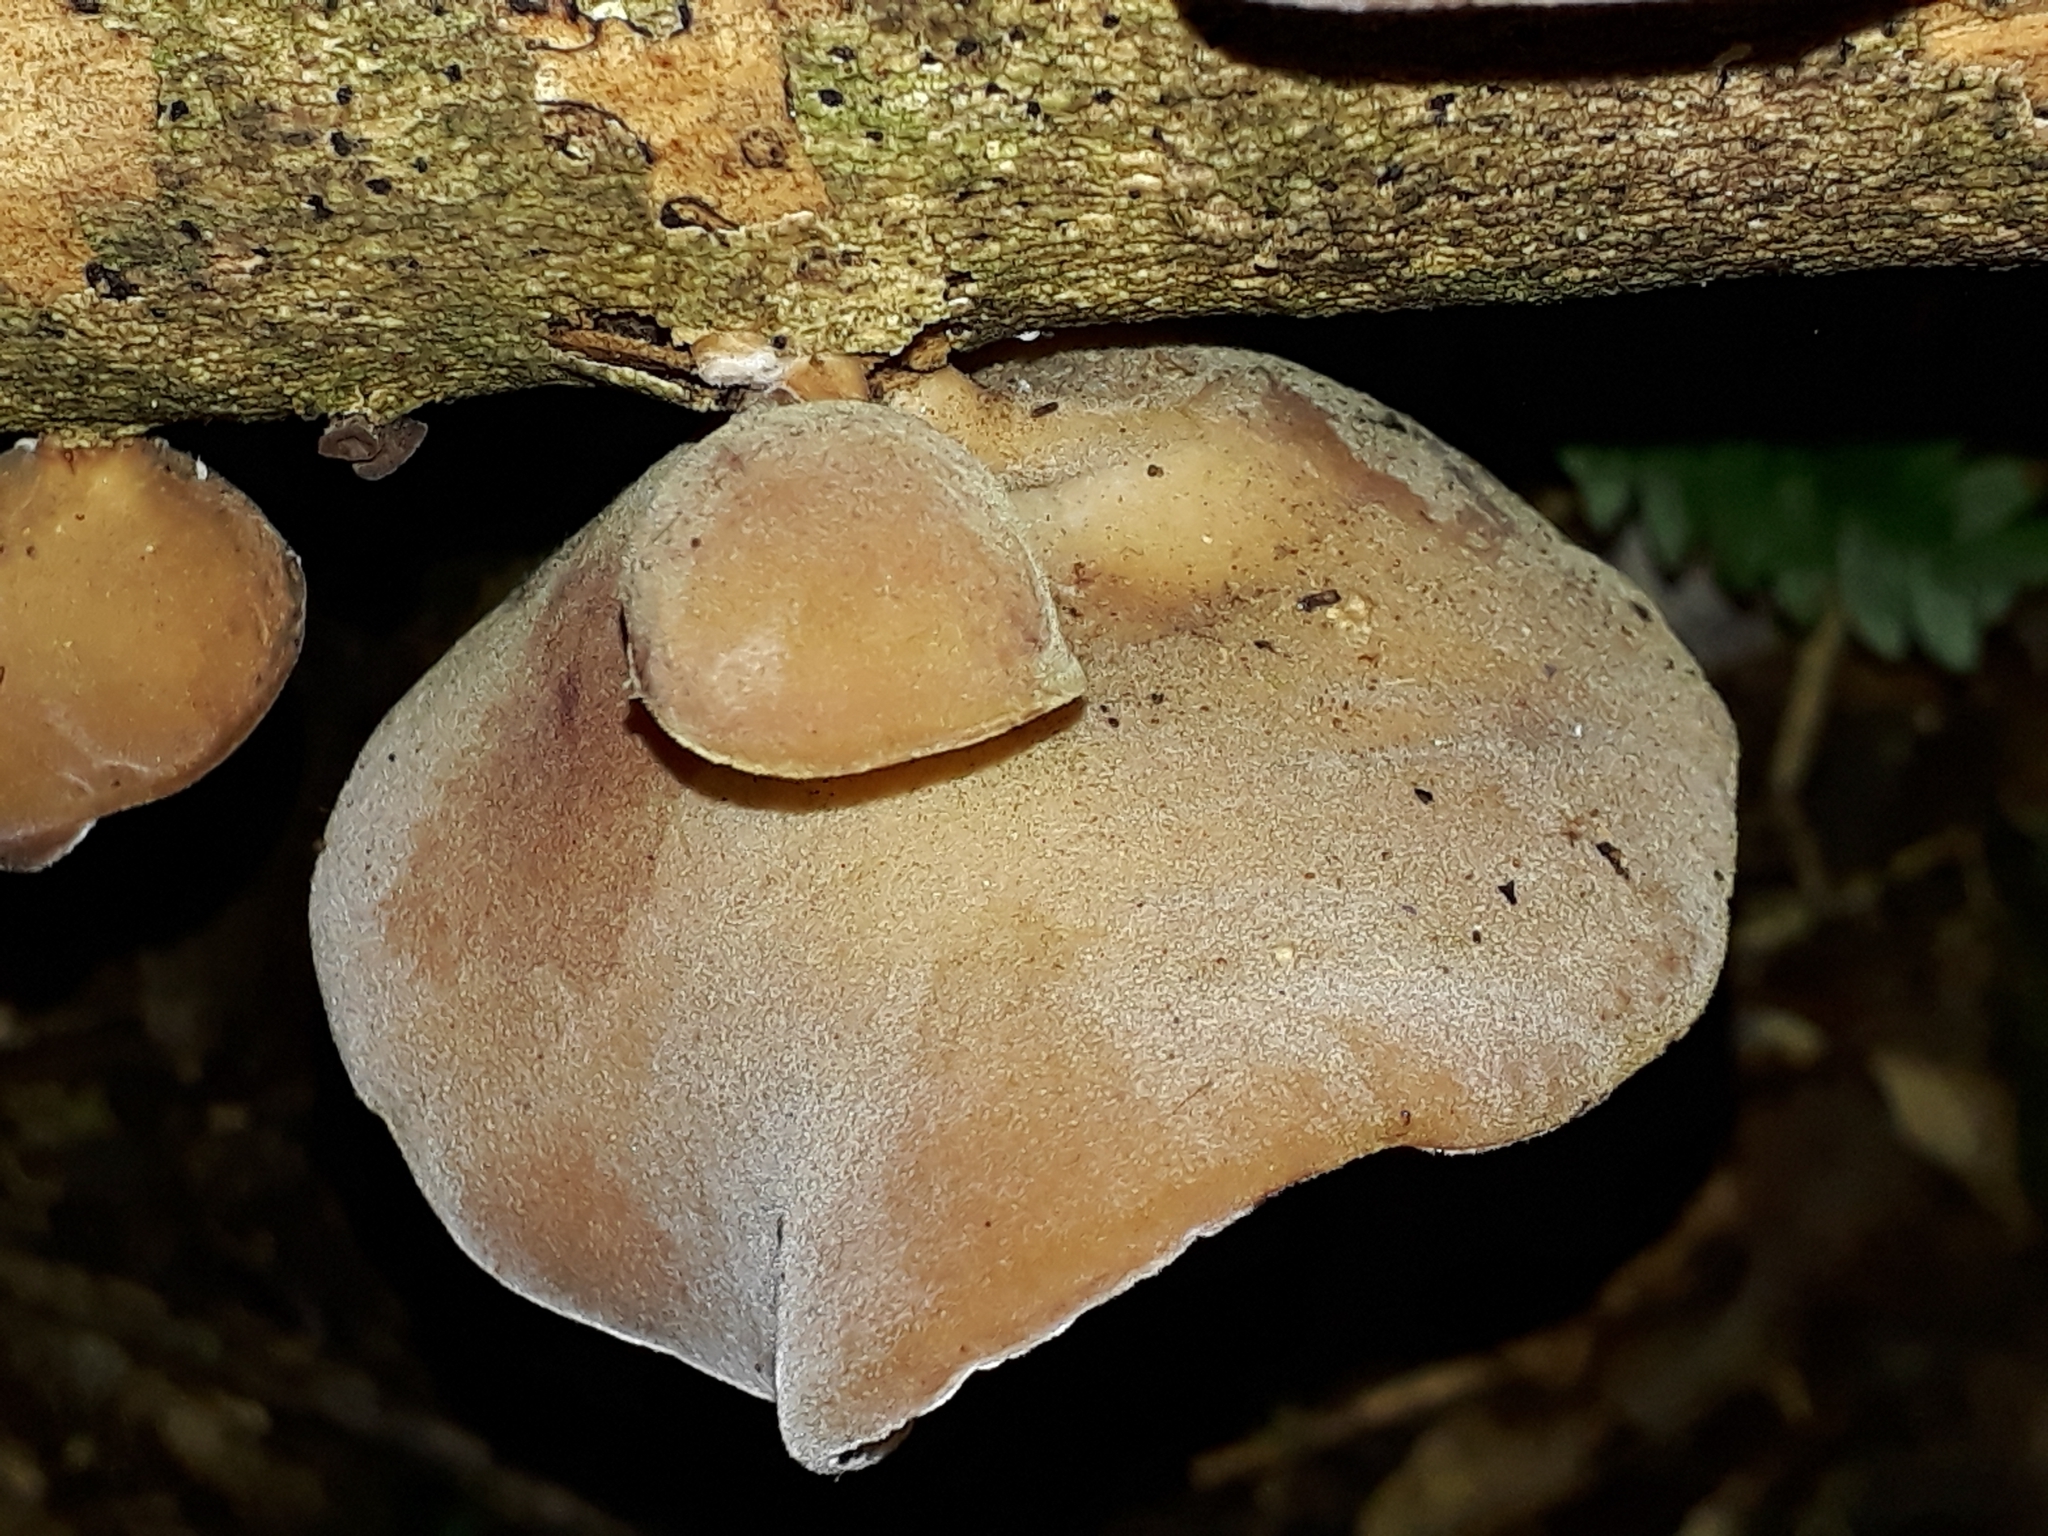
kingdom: Fungi
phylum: Basidiomycota
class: Agaricomycetes
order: Auriculariales
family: Auriculariaceae
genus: Auricularia
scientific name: Auricularia cornea
